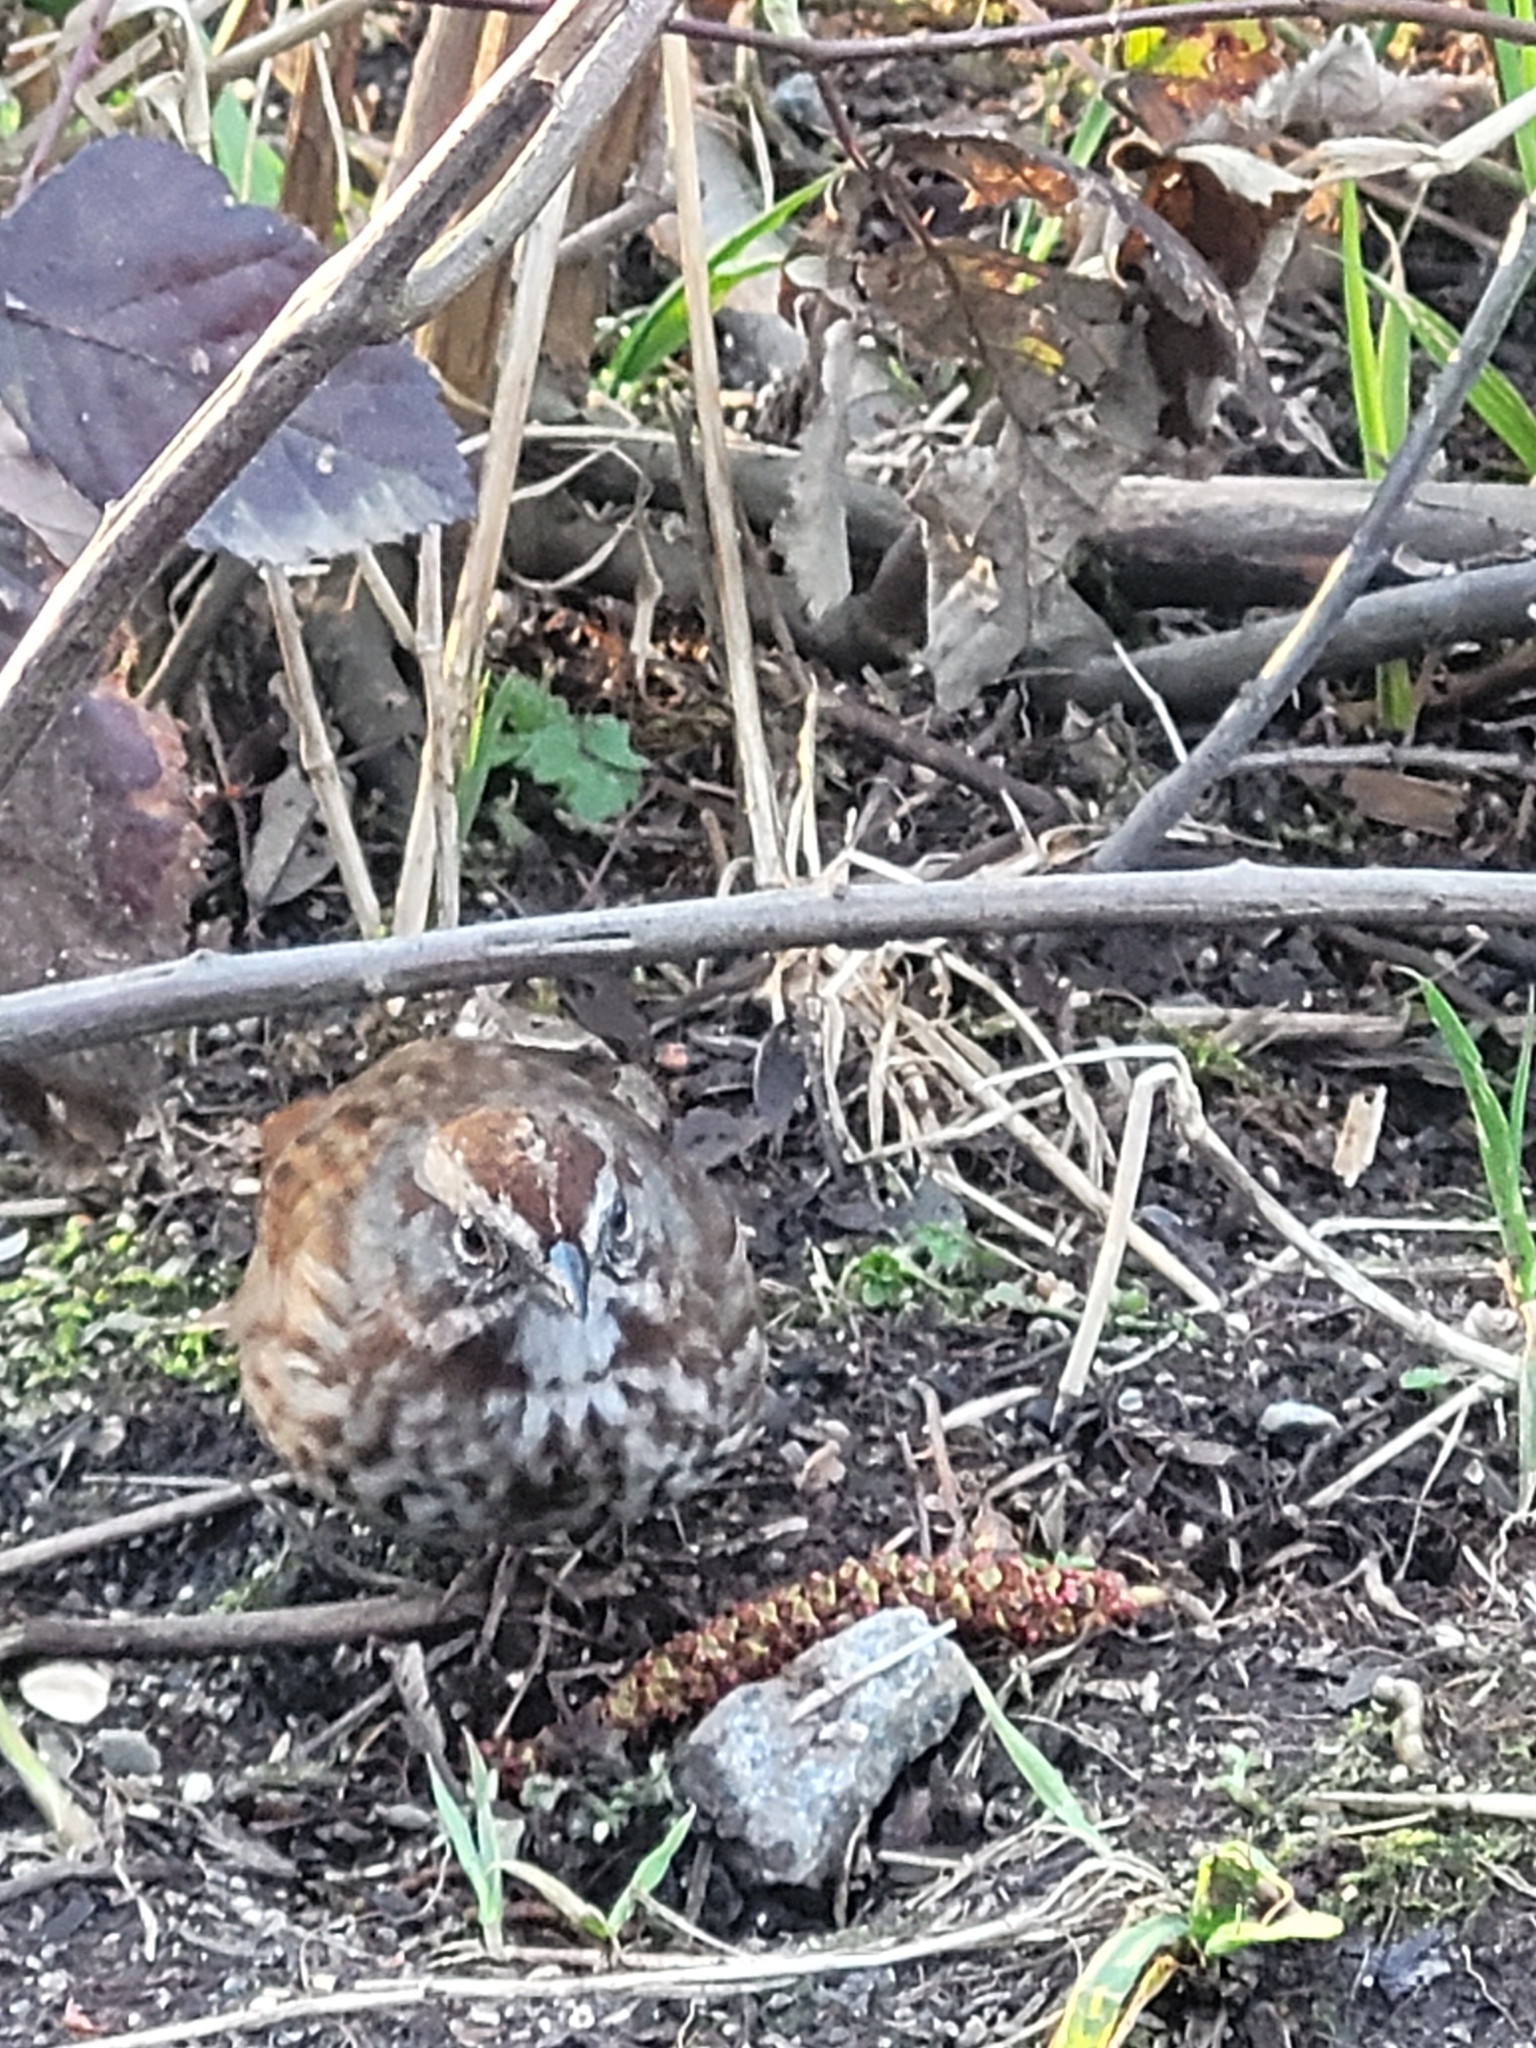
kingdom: Animalia
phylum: Chordata
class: Aves
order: Passeriformes
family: Passerellidae
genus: Melospiza
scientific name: Melospiza melodia
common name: Song sparrow
